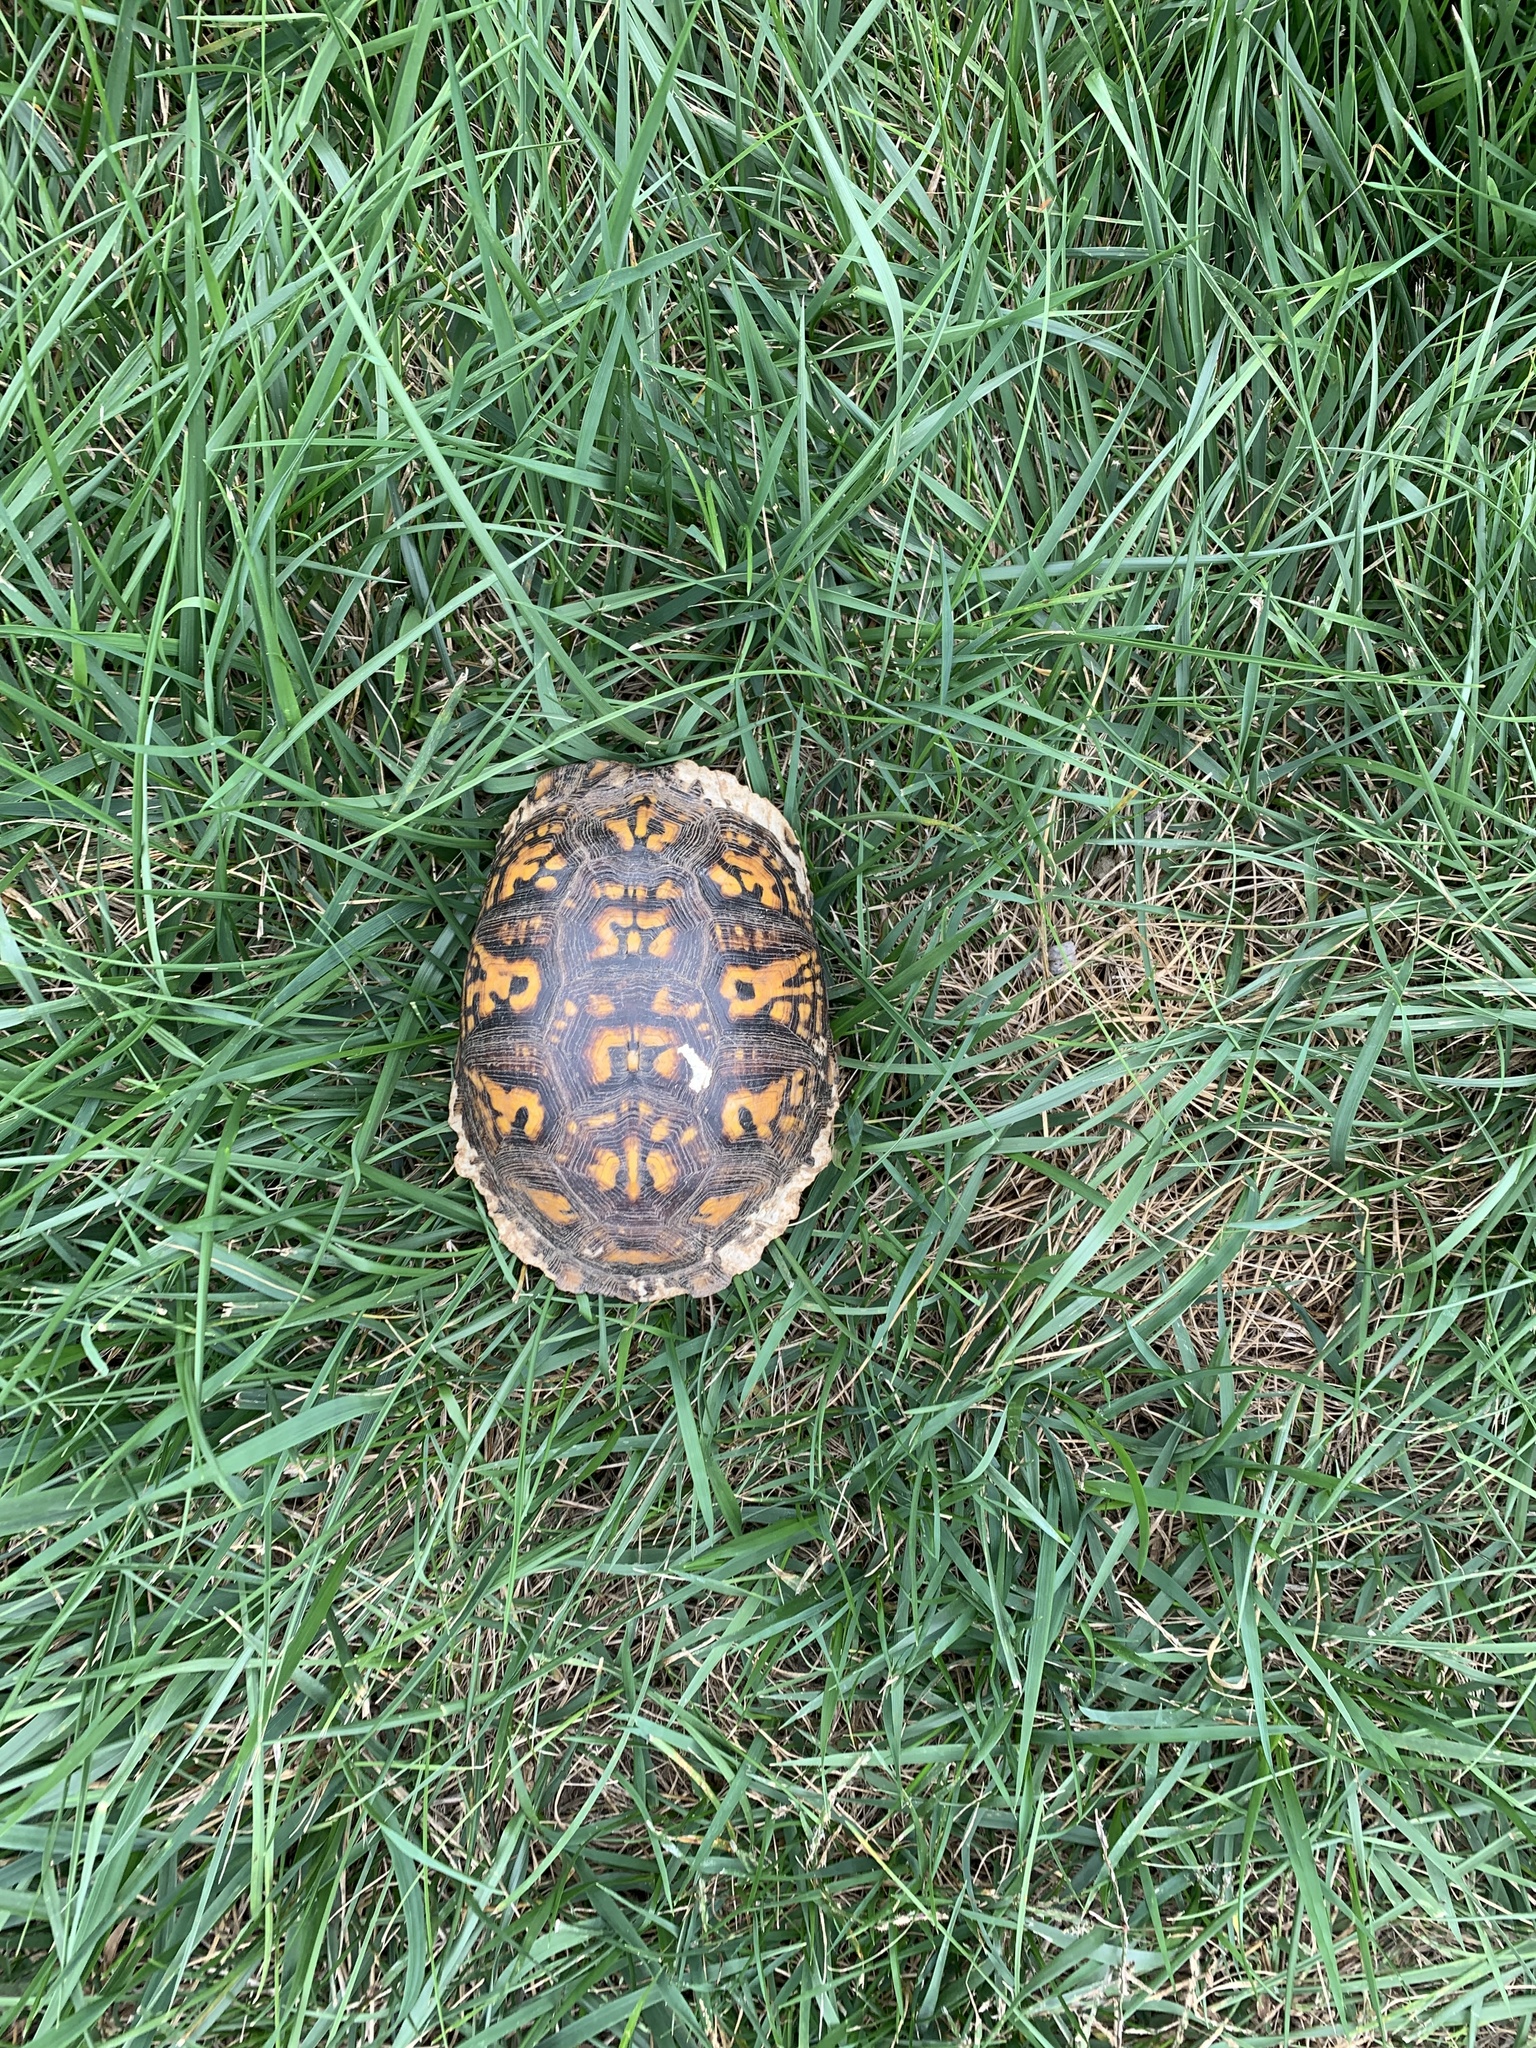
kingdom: Animalia
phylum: Chordata
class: Testudines
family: Emydidae
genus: Terrapene
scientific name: Terrapene carolina
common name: Common box turtle
